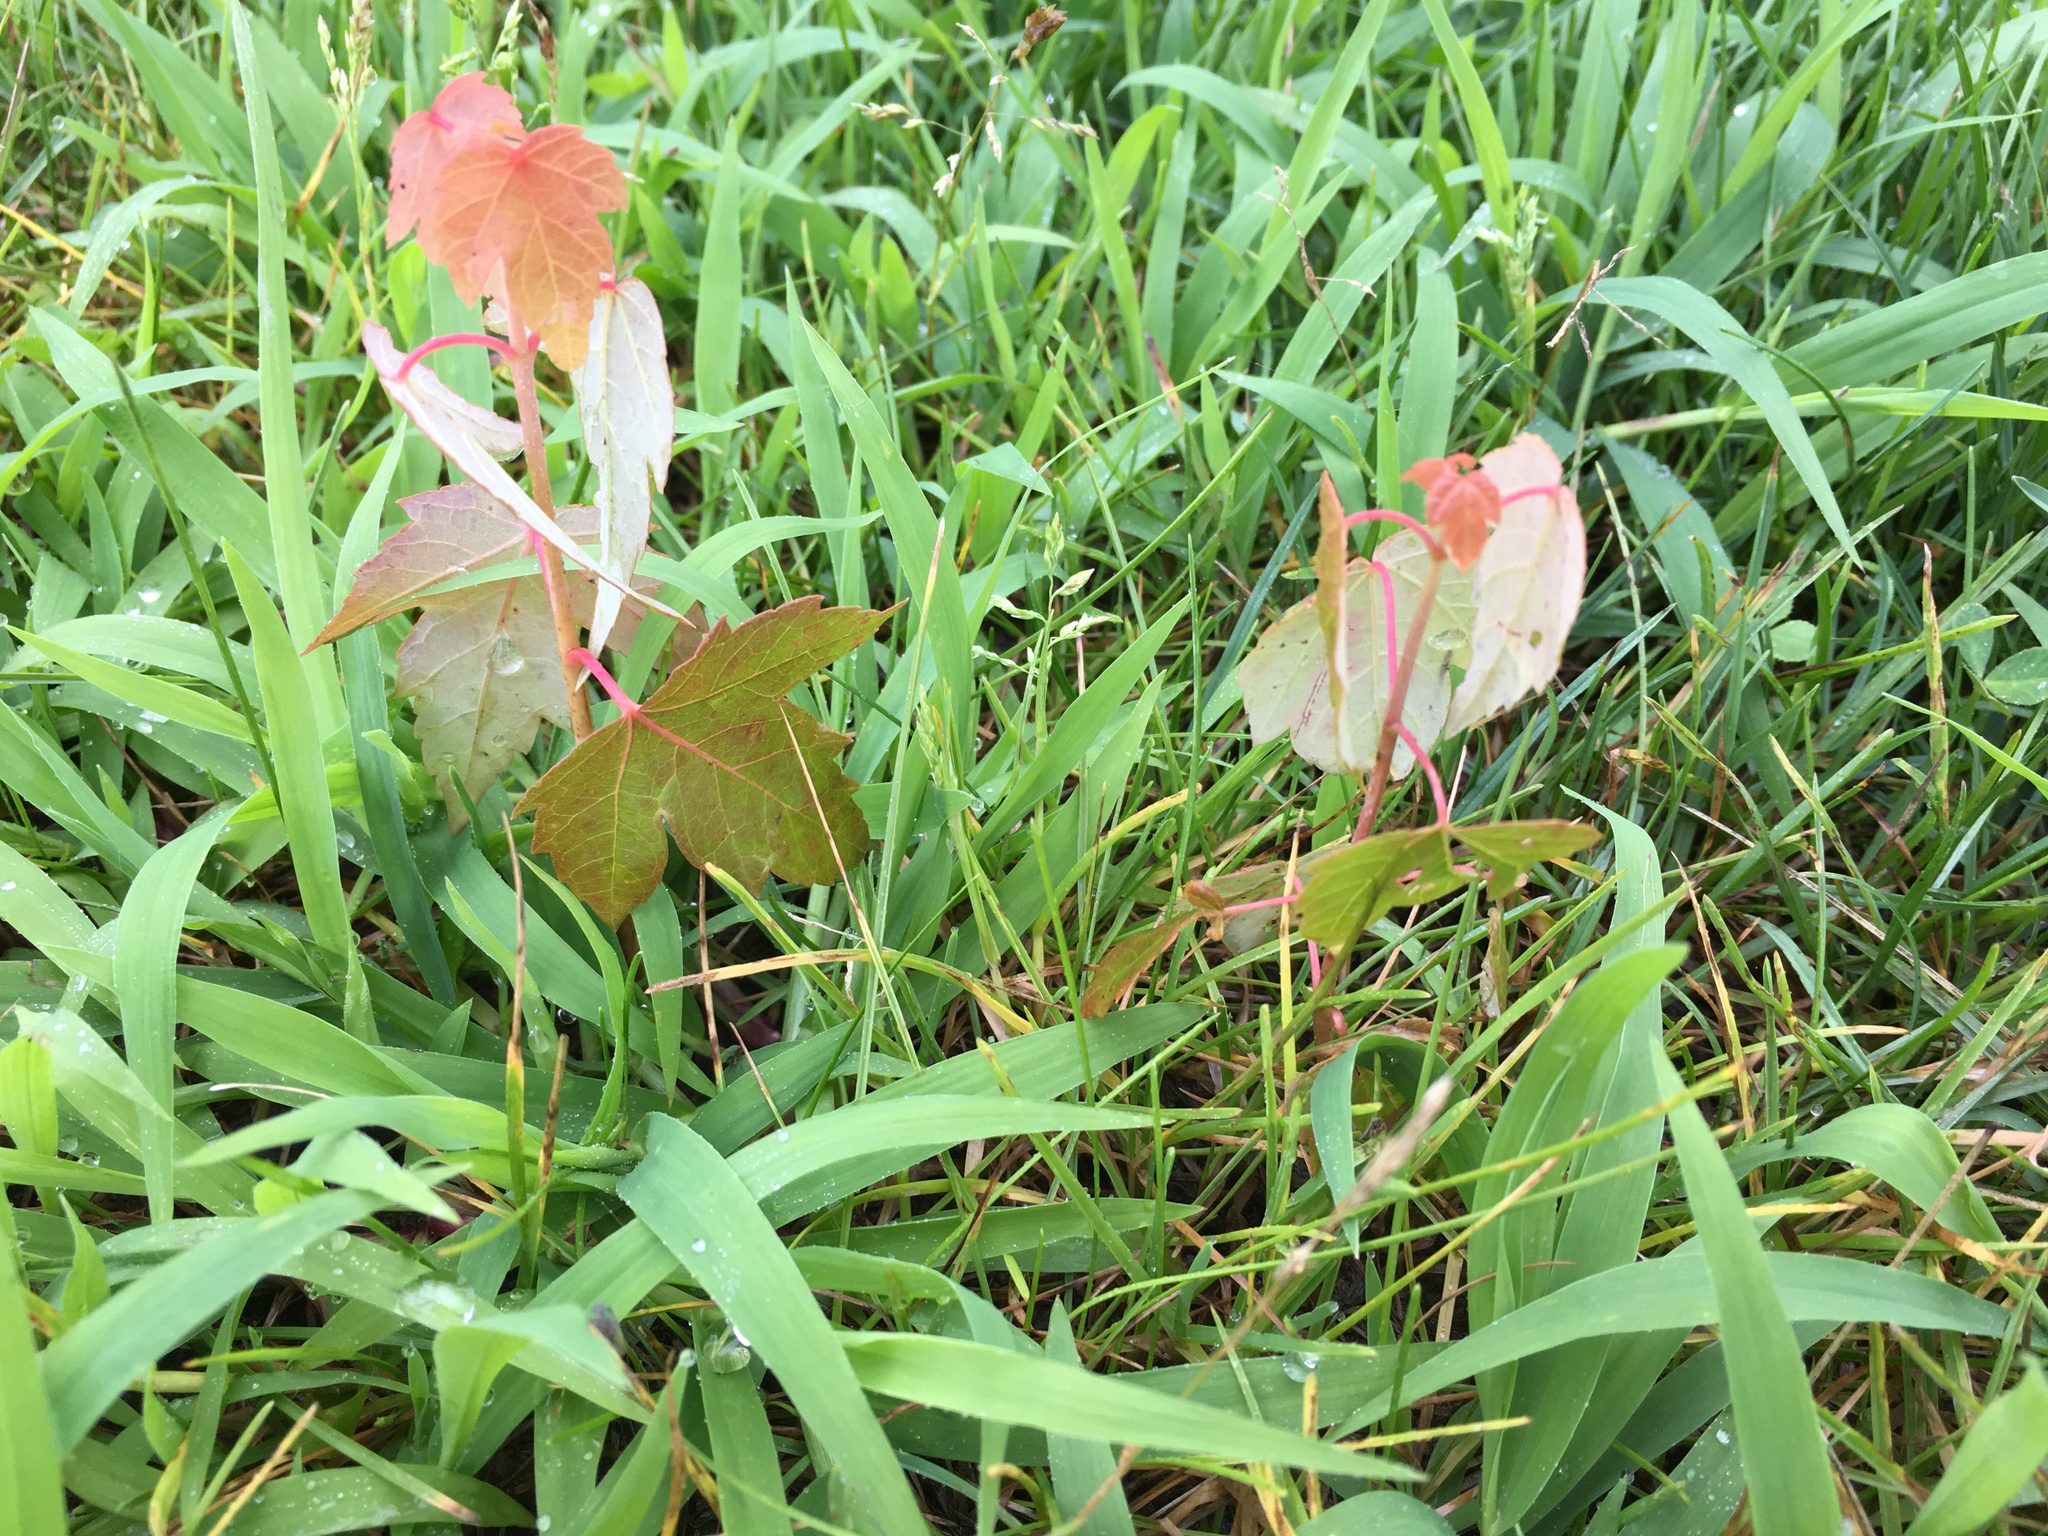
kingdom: Plantae
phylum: Tracheophyta
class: Magnoliopsida
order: Sapindales
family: Sapindaceae
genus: Acer
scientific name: Acer rubrum
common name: Red maple
